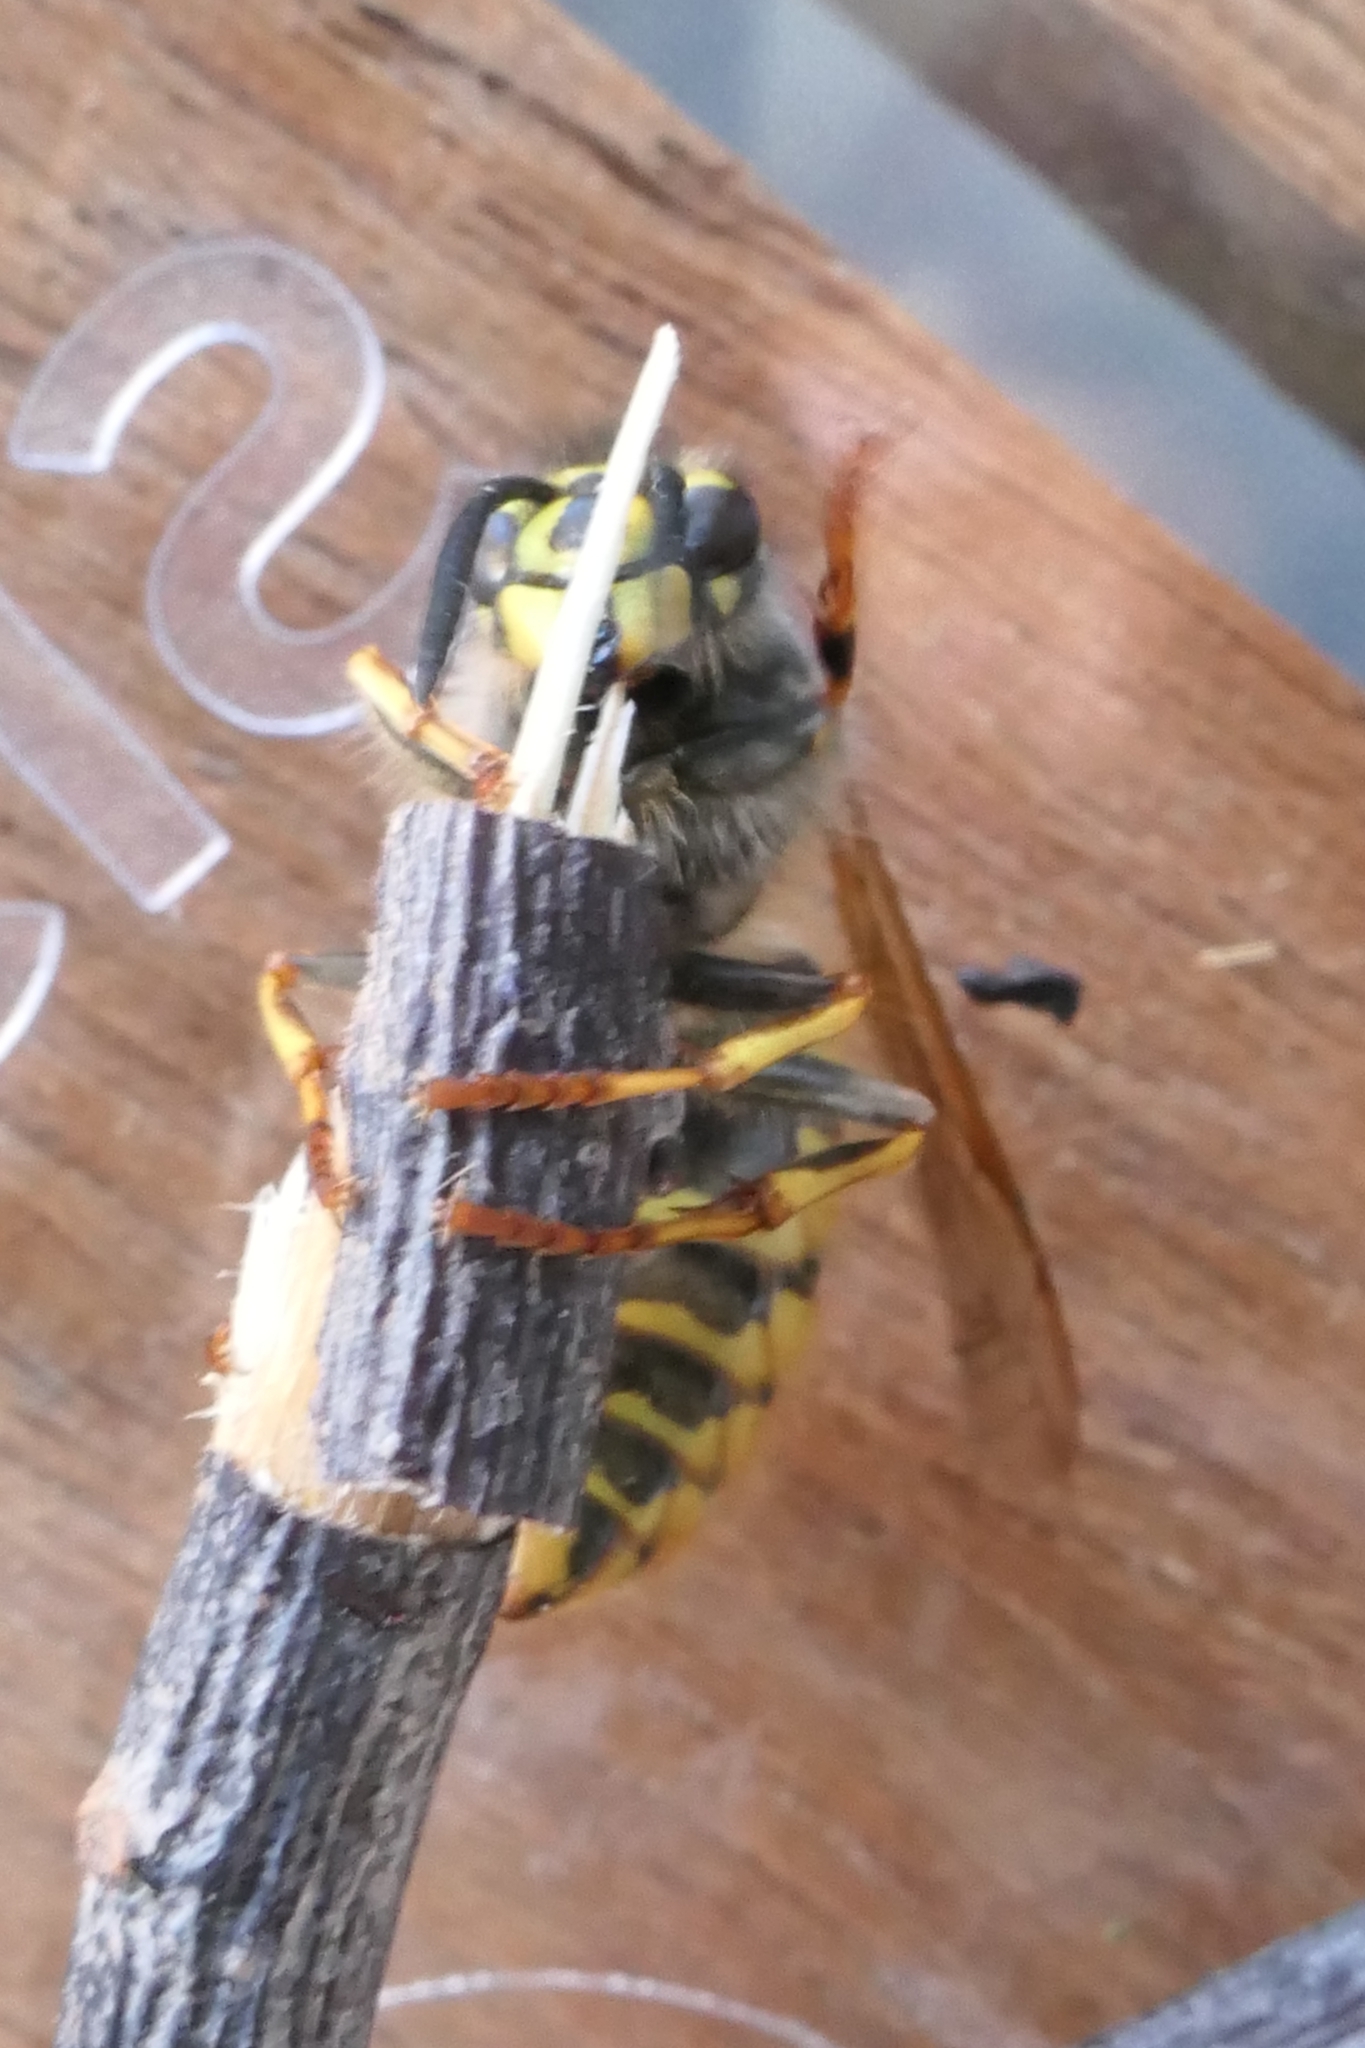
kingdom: Animalia
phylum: Arthropoda
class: Insecta
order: Hymenoptera
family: Vespidae
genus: Vespula
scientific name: Vespula vulgaris
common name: Common wasp
